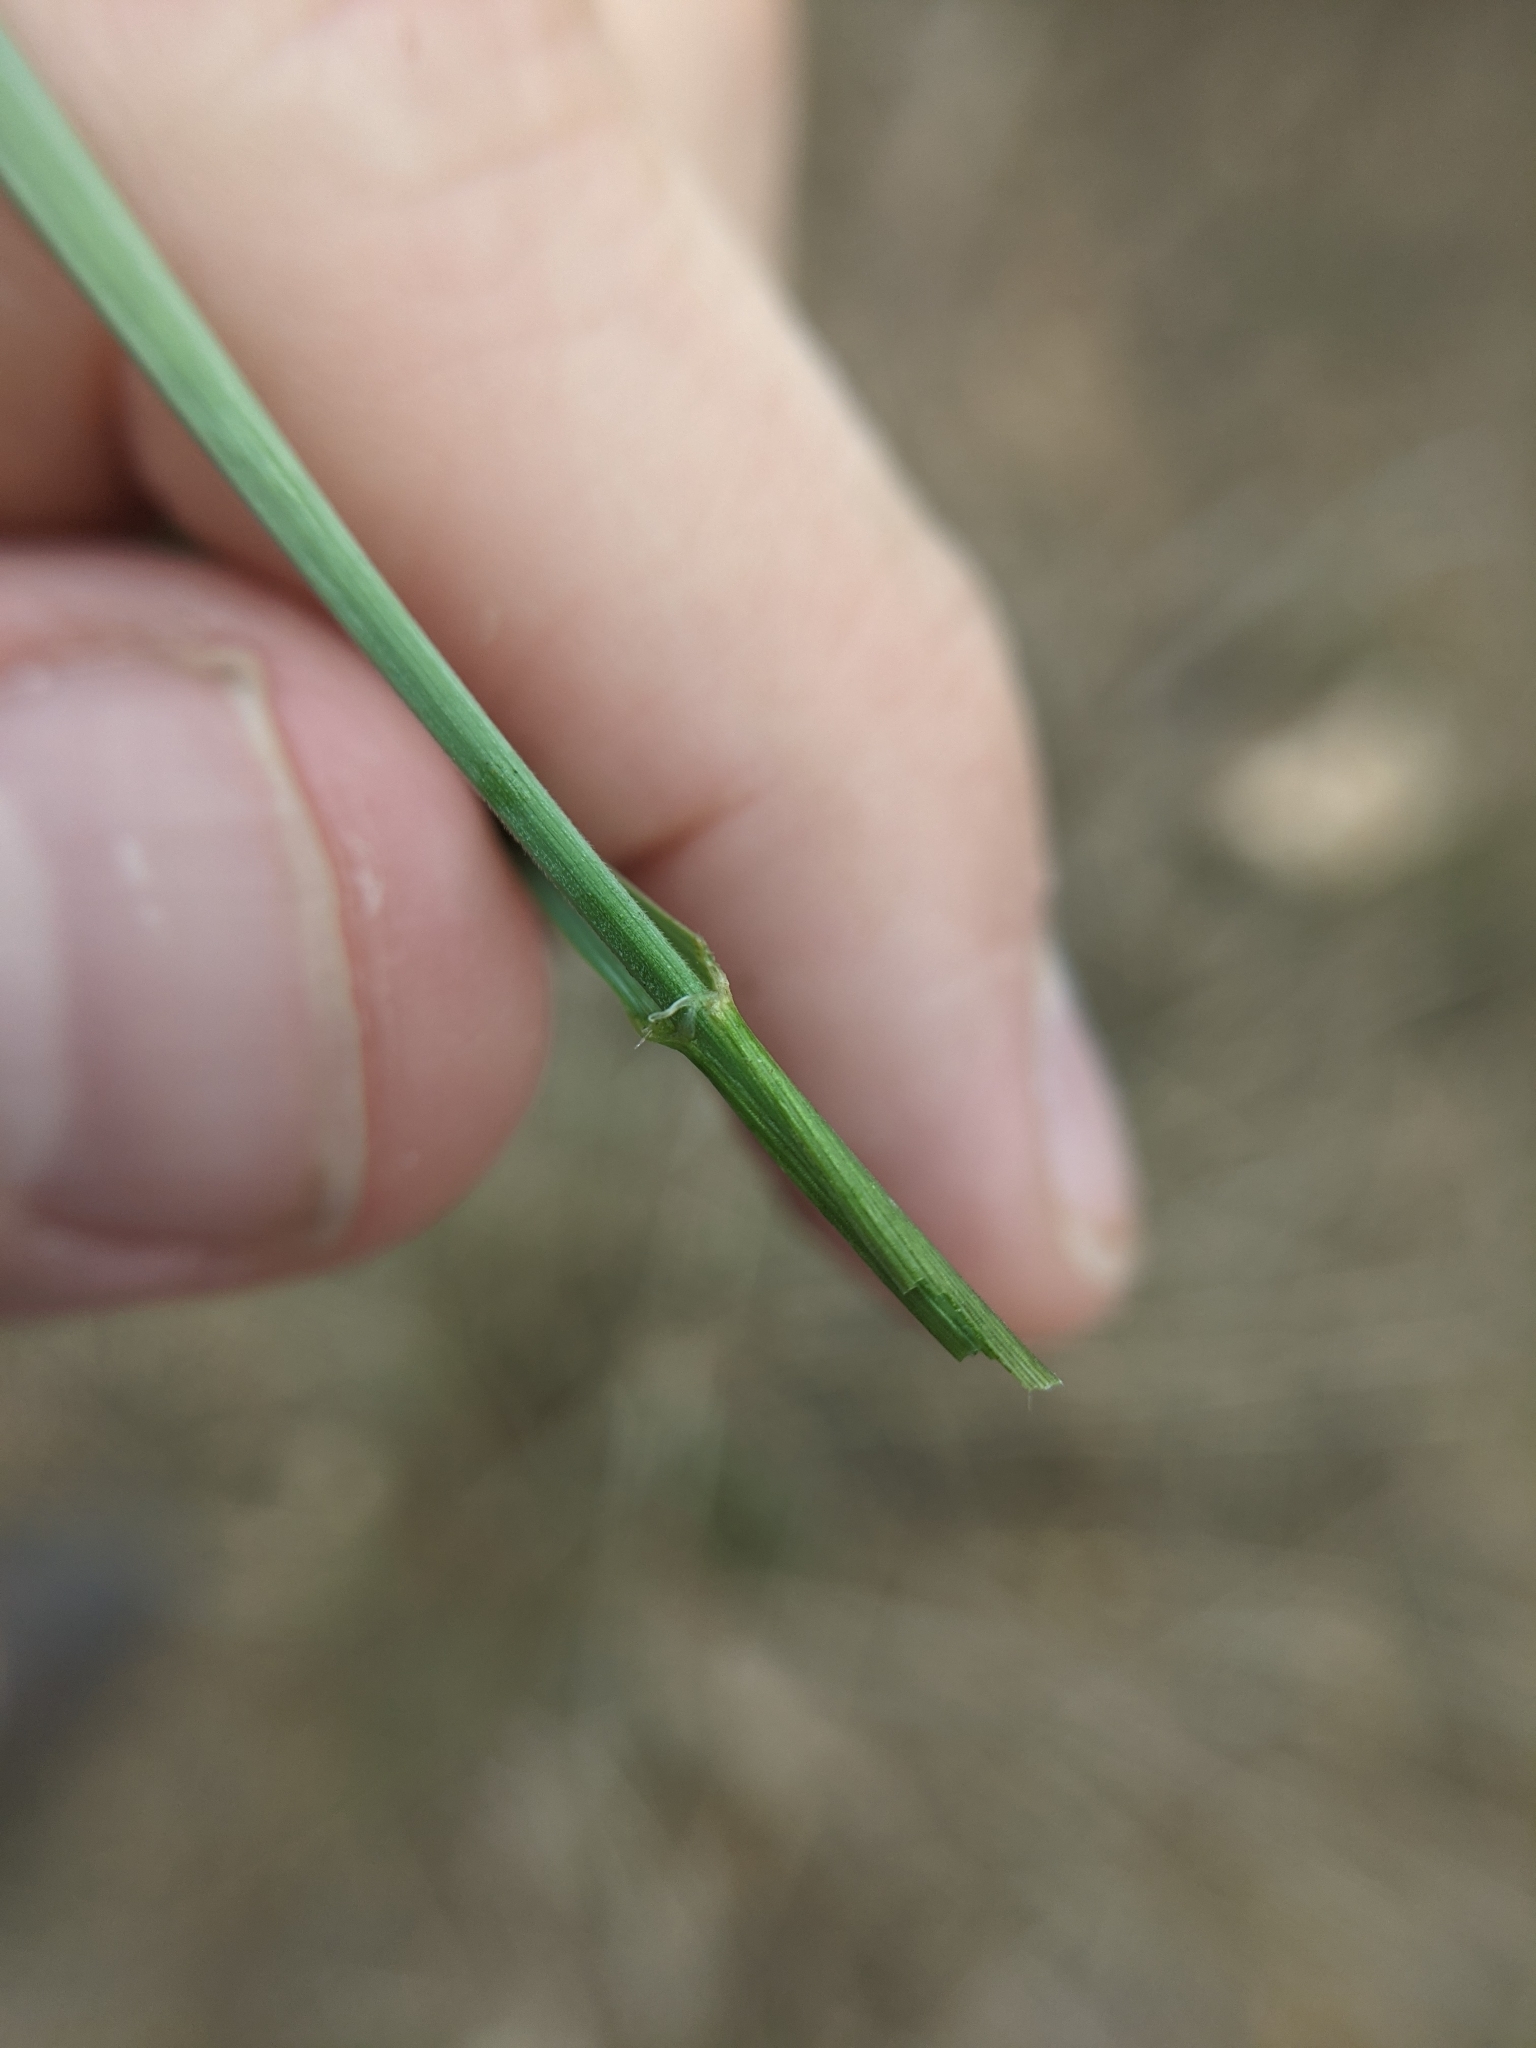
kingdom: Plantae
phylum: Tracheophyta
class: Liliopsida
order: Poales
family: Poaceae
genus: Elymus
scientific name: Elymus virginicus
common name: Common eastern wildrye
